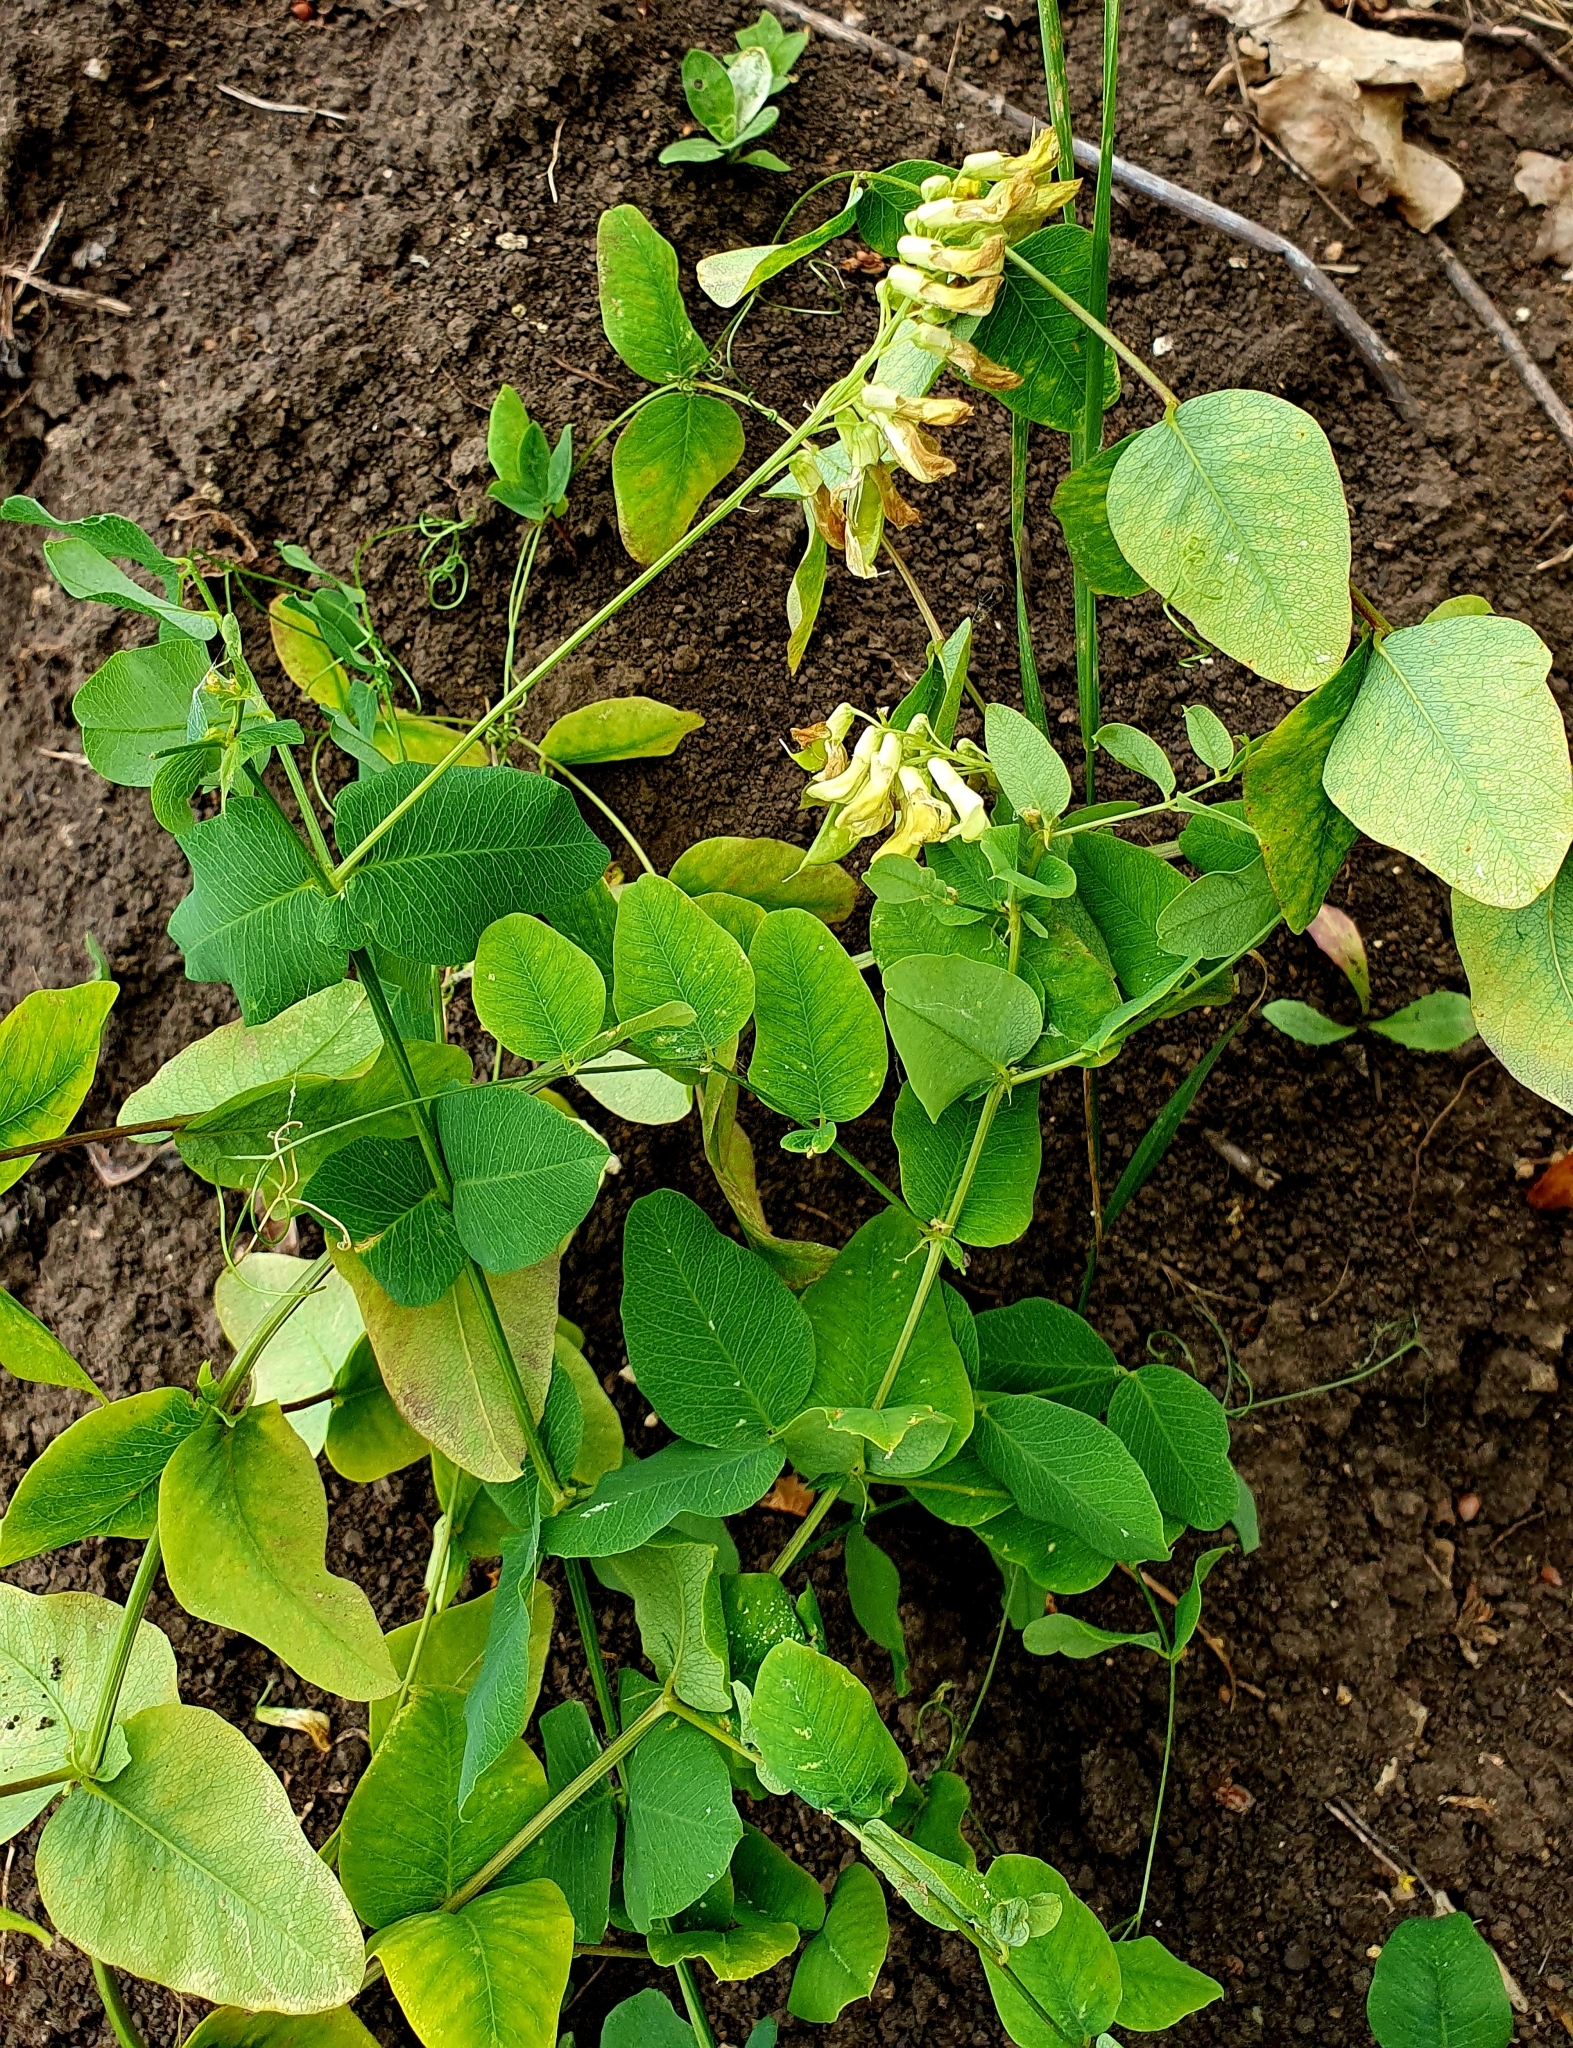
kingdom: Plantae
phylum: Tracheophyta
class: Magnoliopsida
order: Fabales
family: Fabaceae
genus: Vicia
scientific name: Vicia pisiformis
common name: Pale-flower vetch
